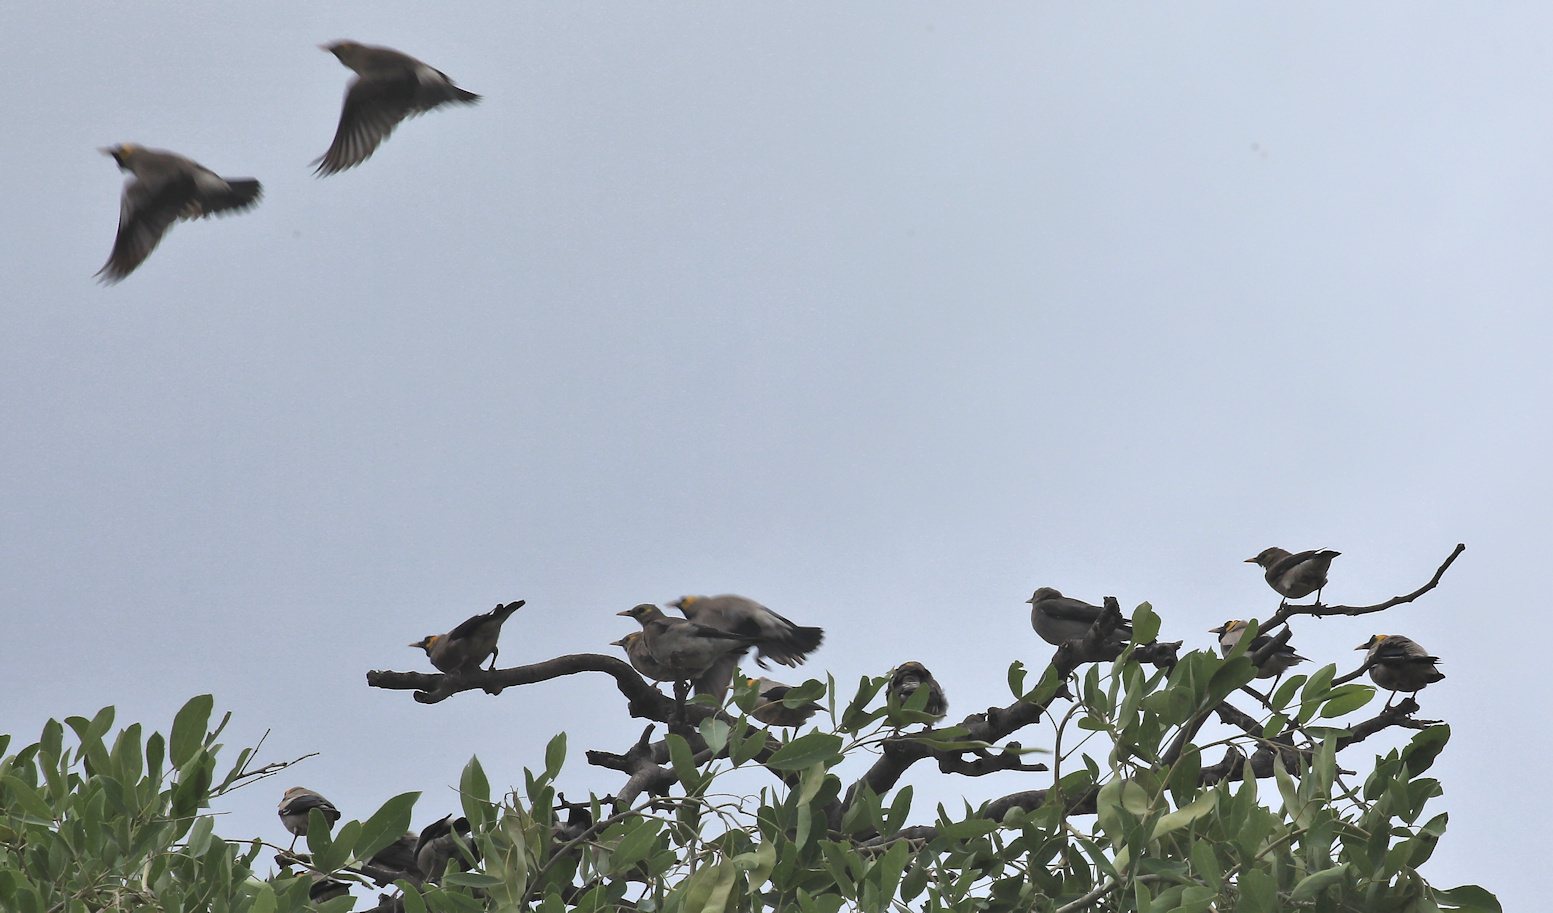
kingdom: Animalia
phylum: Chordata
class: Aves
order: Passeriformes
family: Sturnidae
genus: Creatophora
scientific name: Creatophora cinerea
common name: Wattled starling
